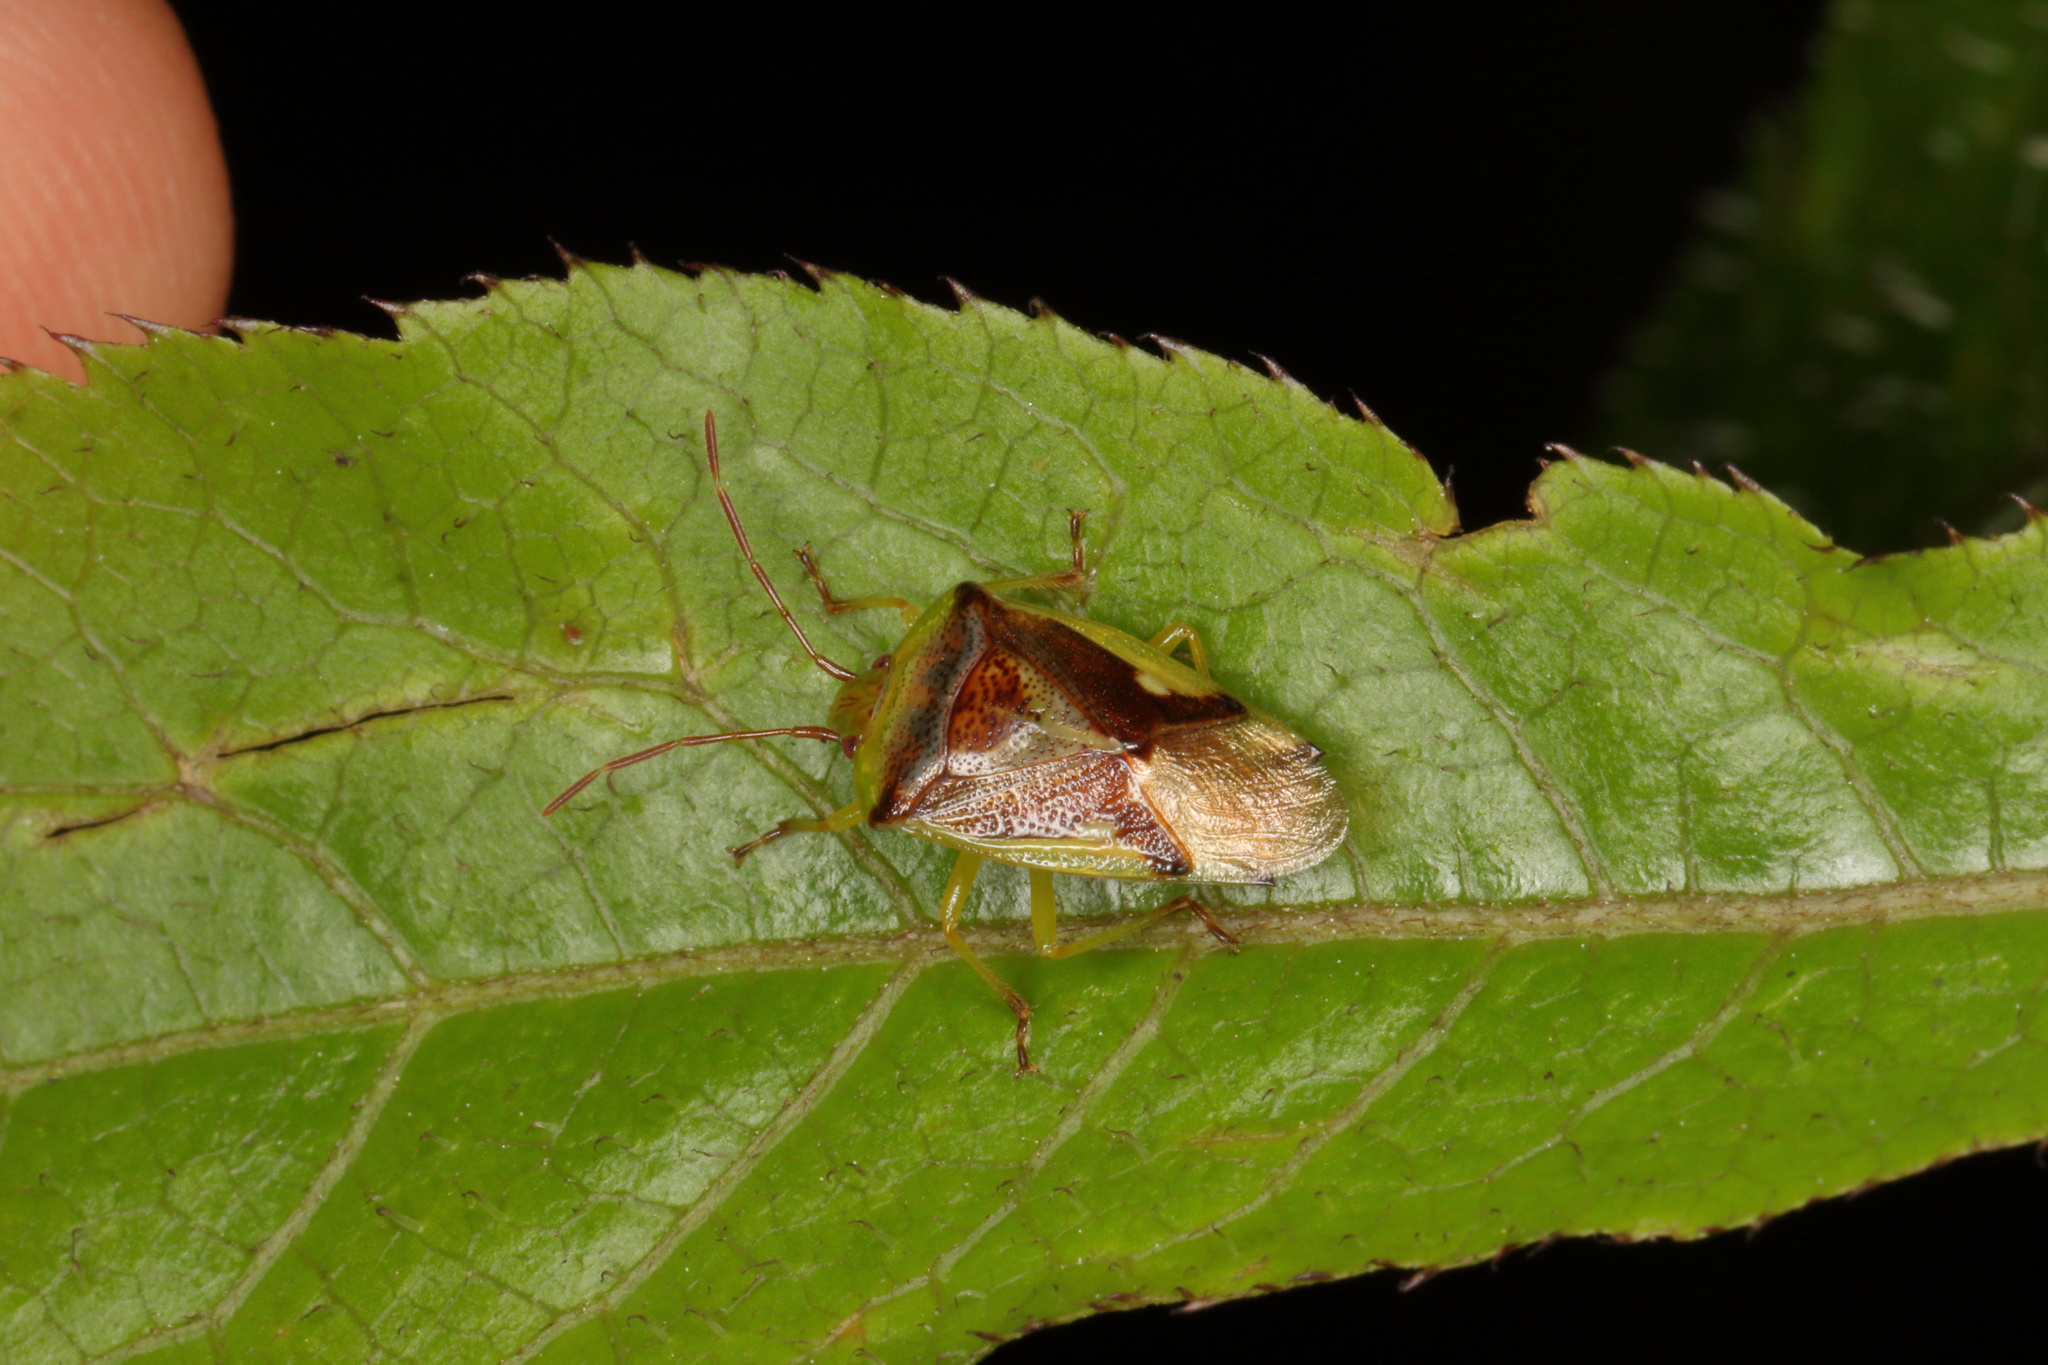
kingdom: Animalia
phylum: Arthropoda
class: Insecta
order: Hemiptera
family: Acanthosomatidae
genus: Oncacontias
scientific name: Oncacontias vittatus
